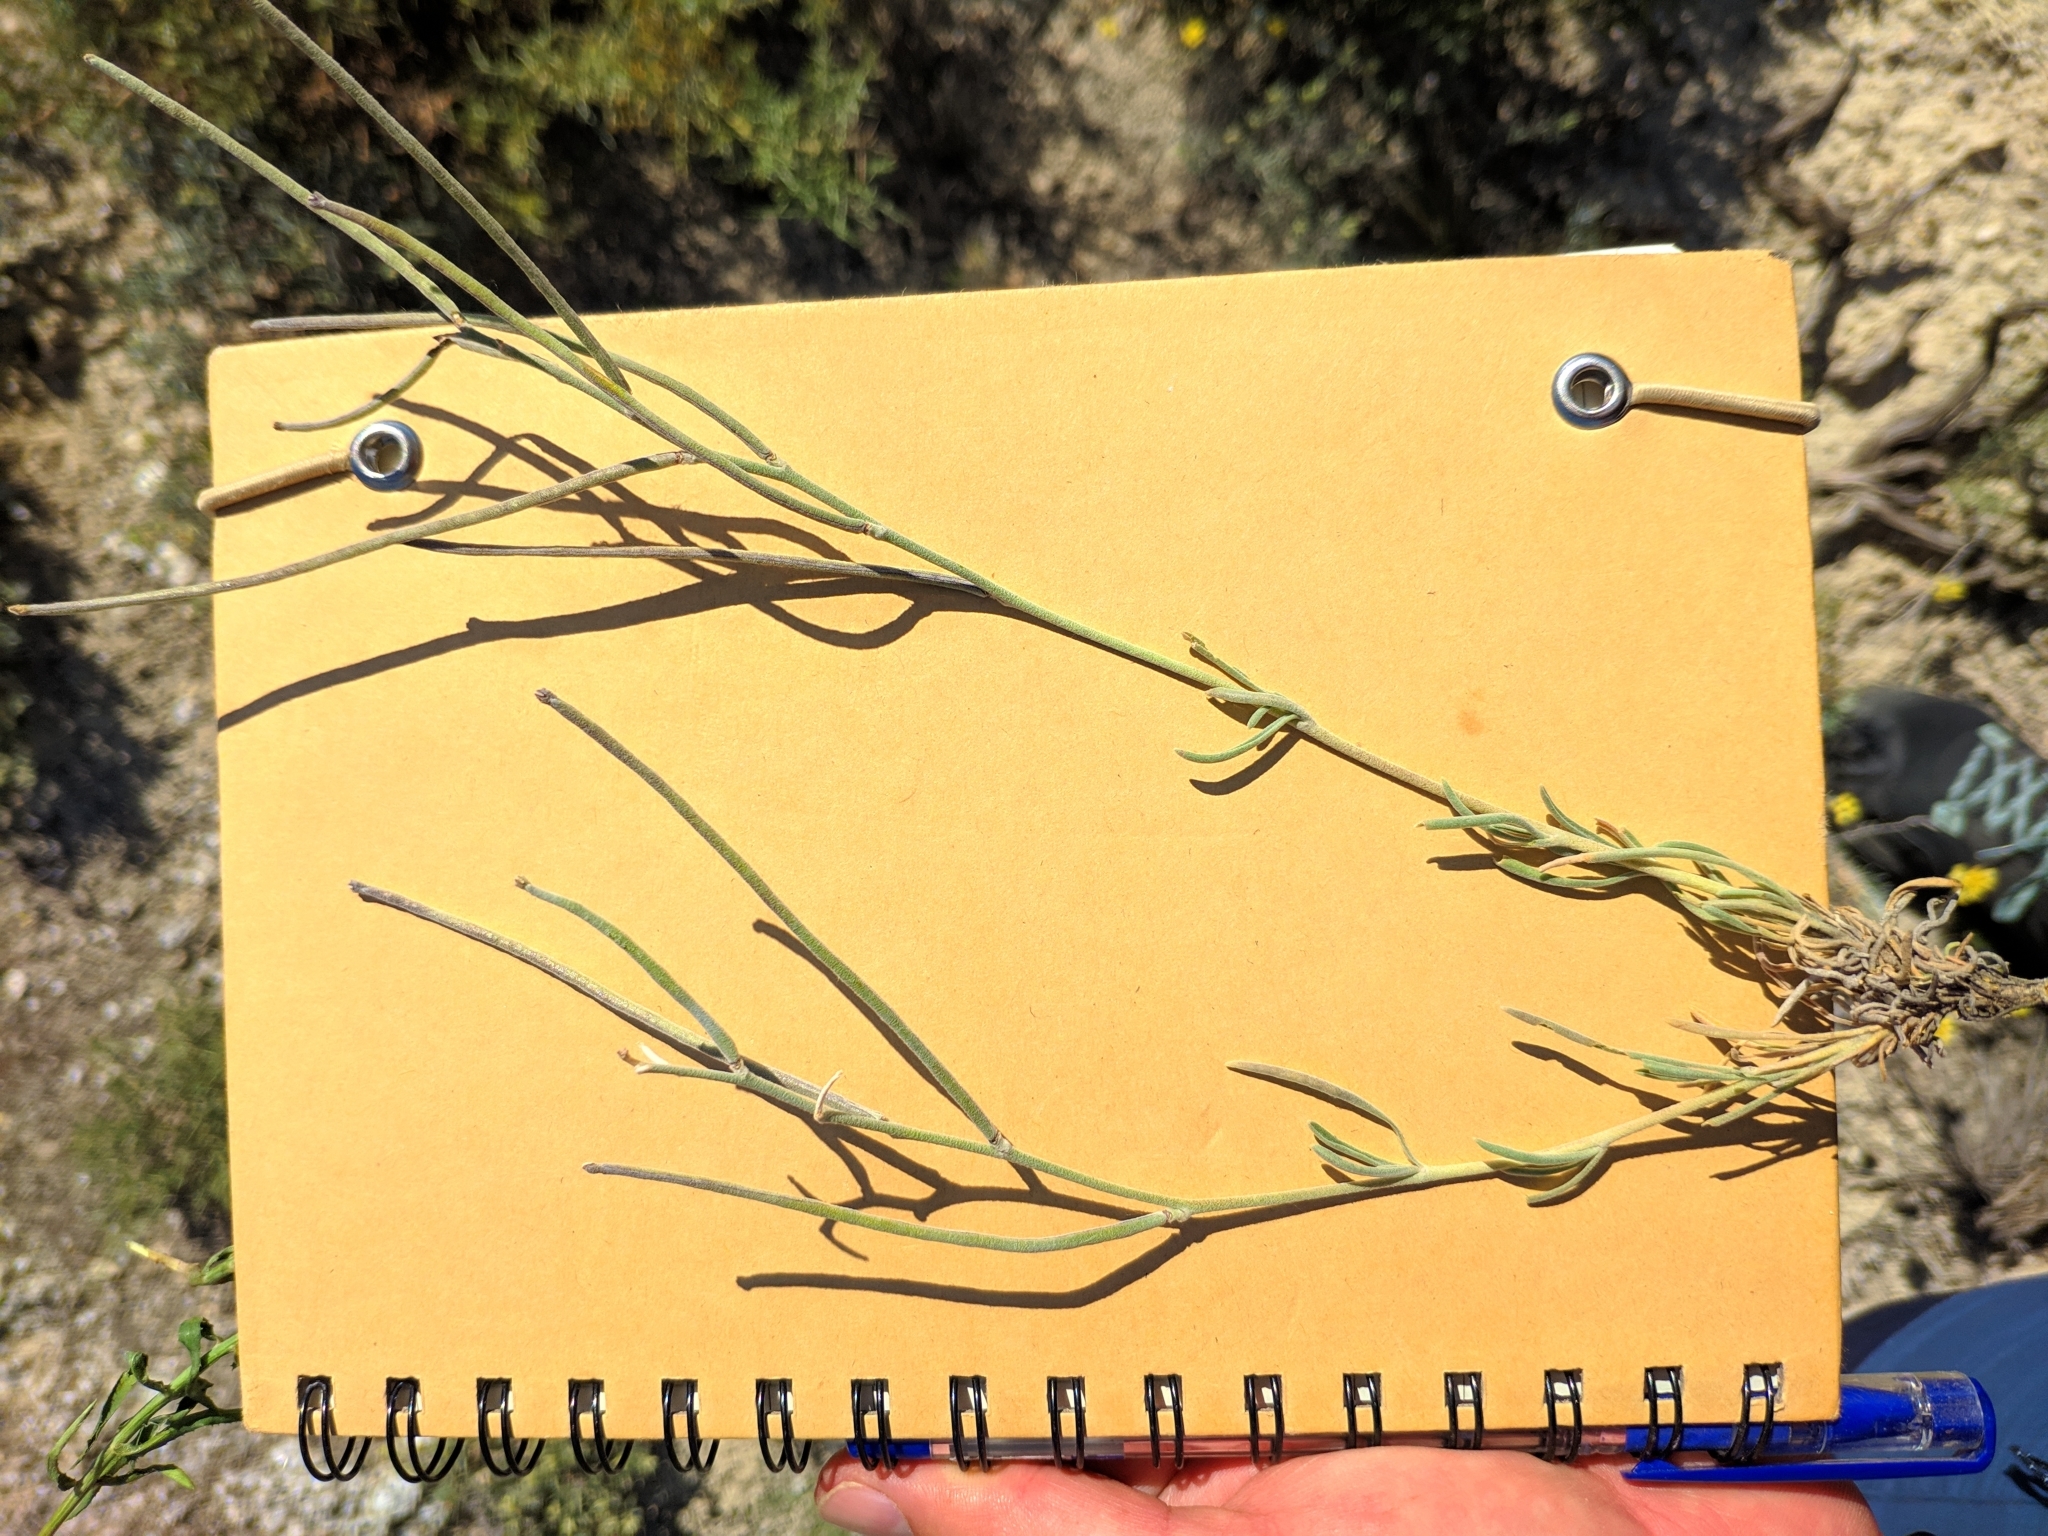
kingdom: Plantae
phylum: Tracheophyta
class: Magnoliopsida
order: Brassicales
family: Brassicaceae
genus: Matthiola
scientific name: Matthiola fruticulosa
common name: Sad stock
